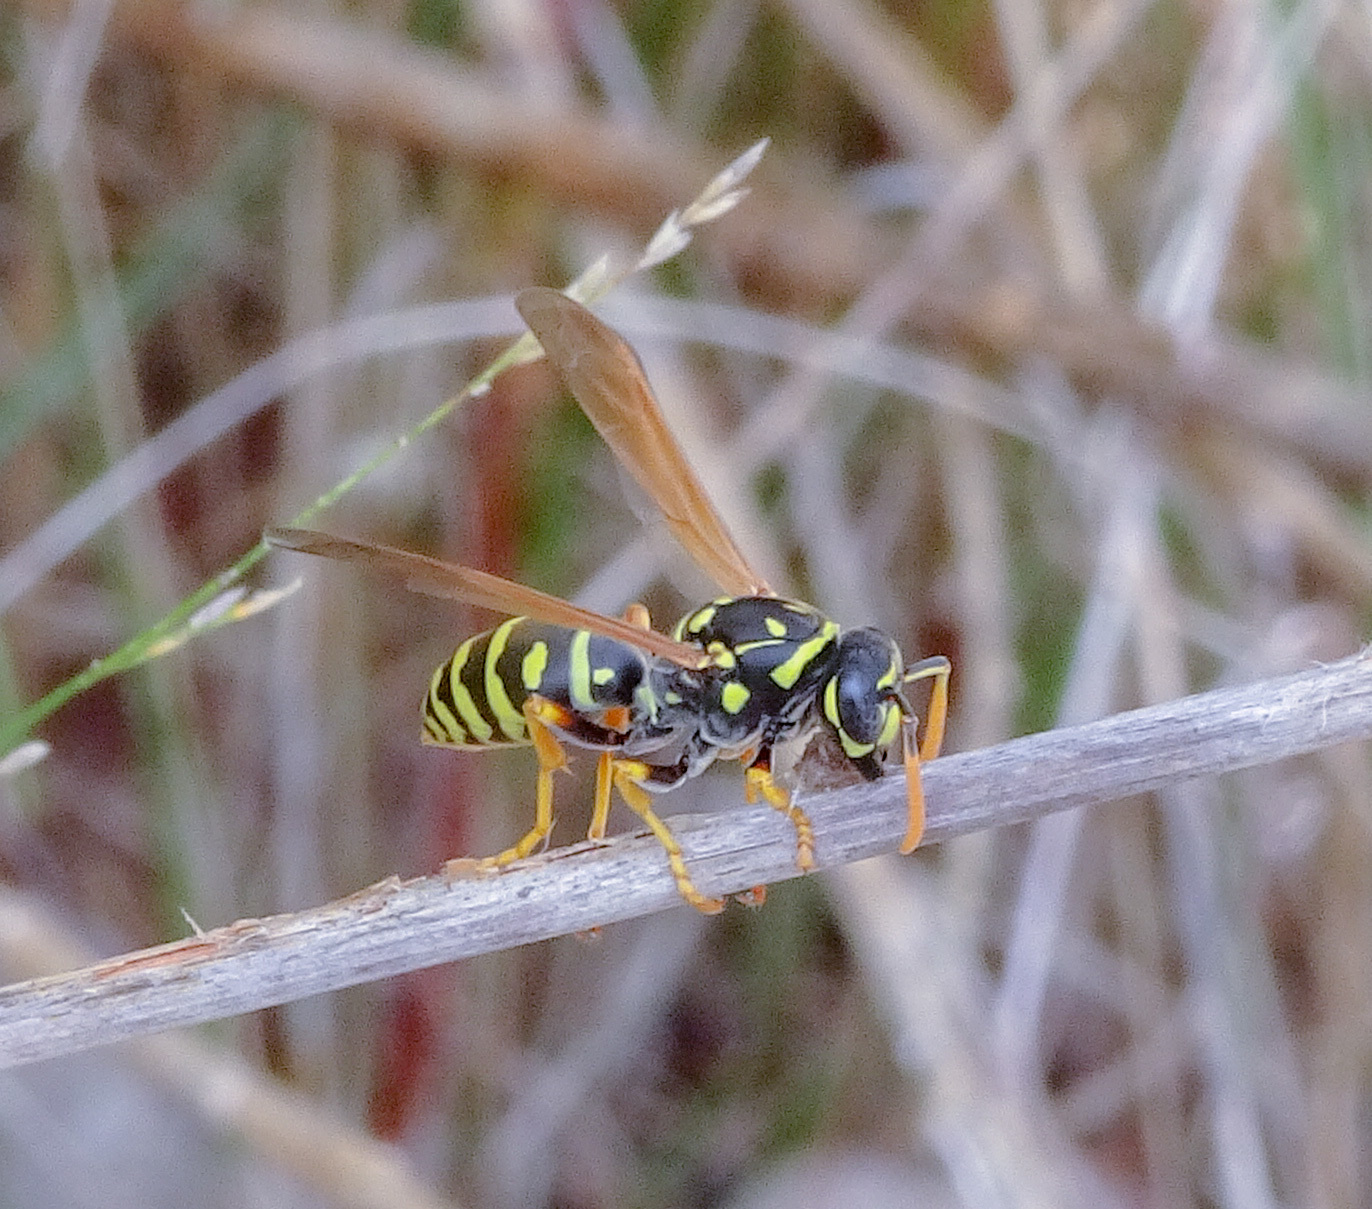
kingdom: Animalia
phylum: Arthropoda
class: Insecta
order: Hymenoptera
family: Eumenidae
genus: Polistes
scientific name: Polistes dominula
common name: Paper wasp
